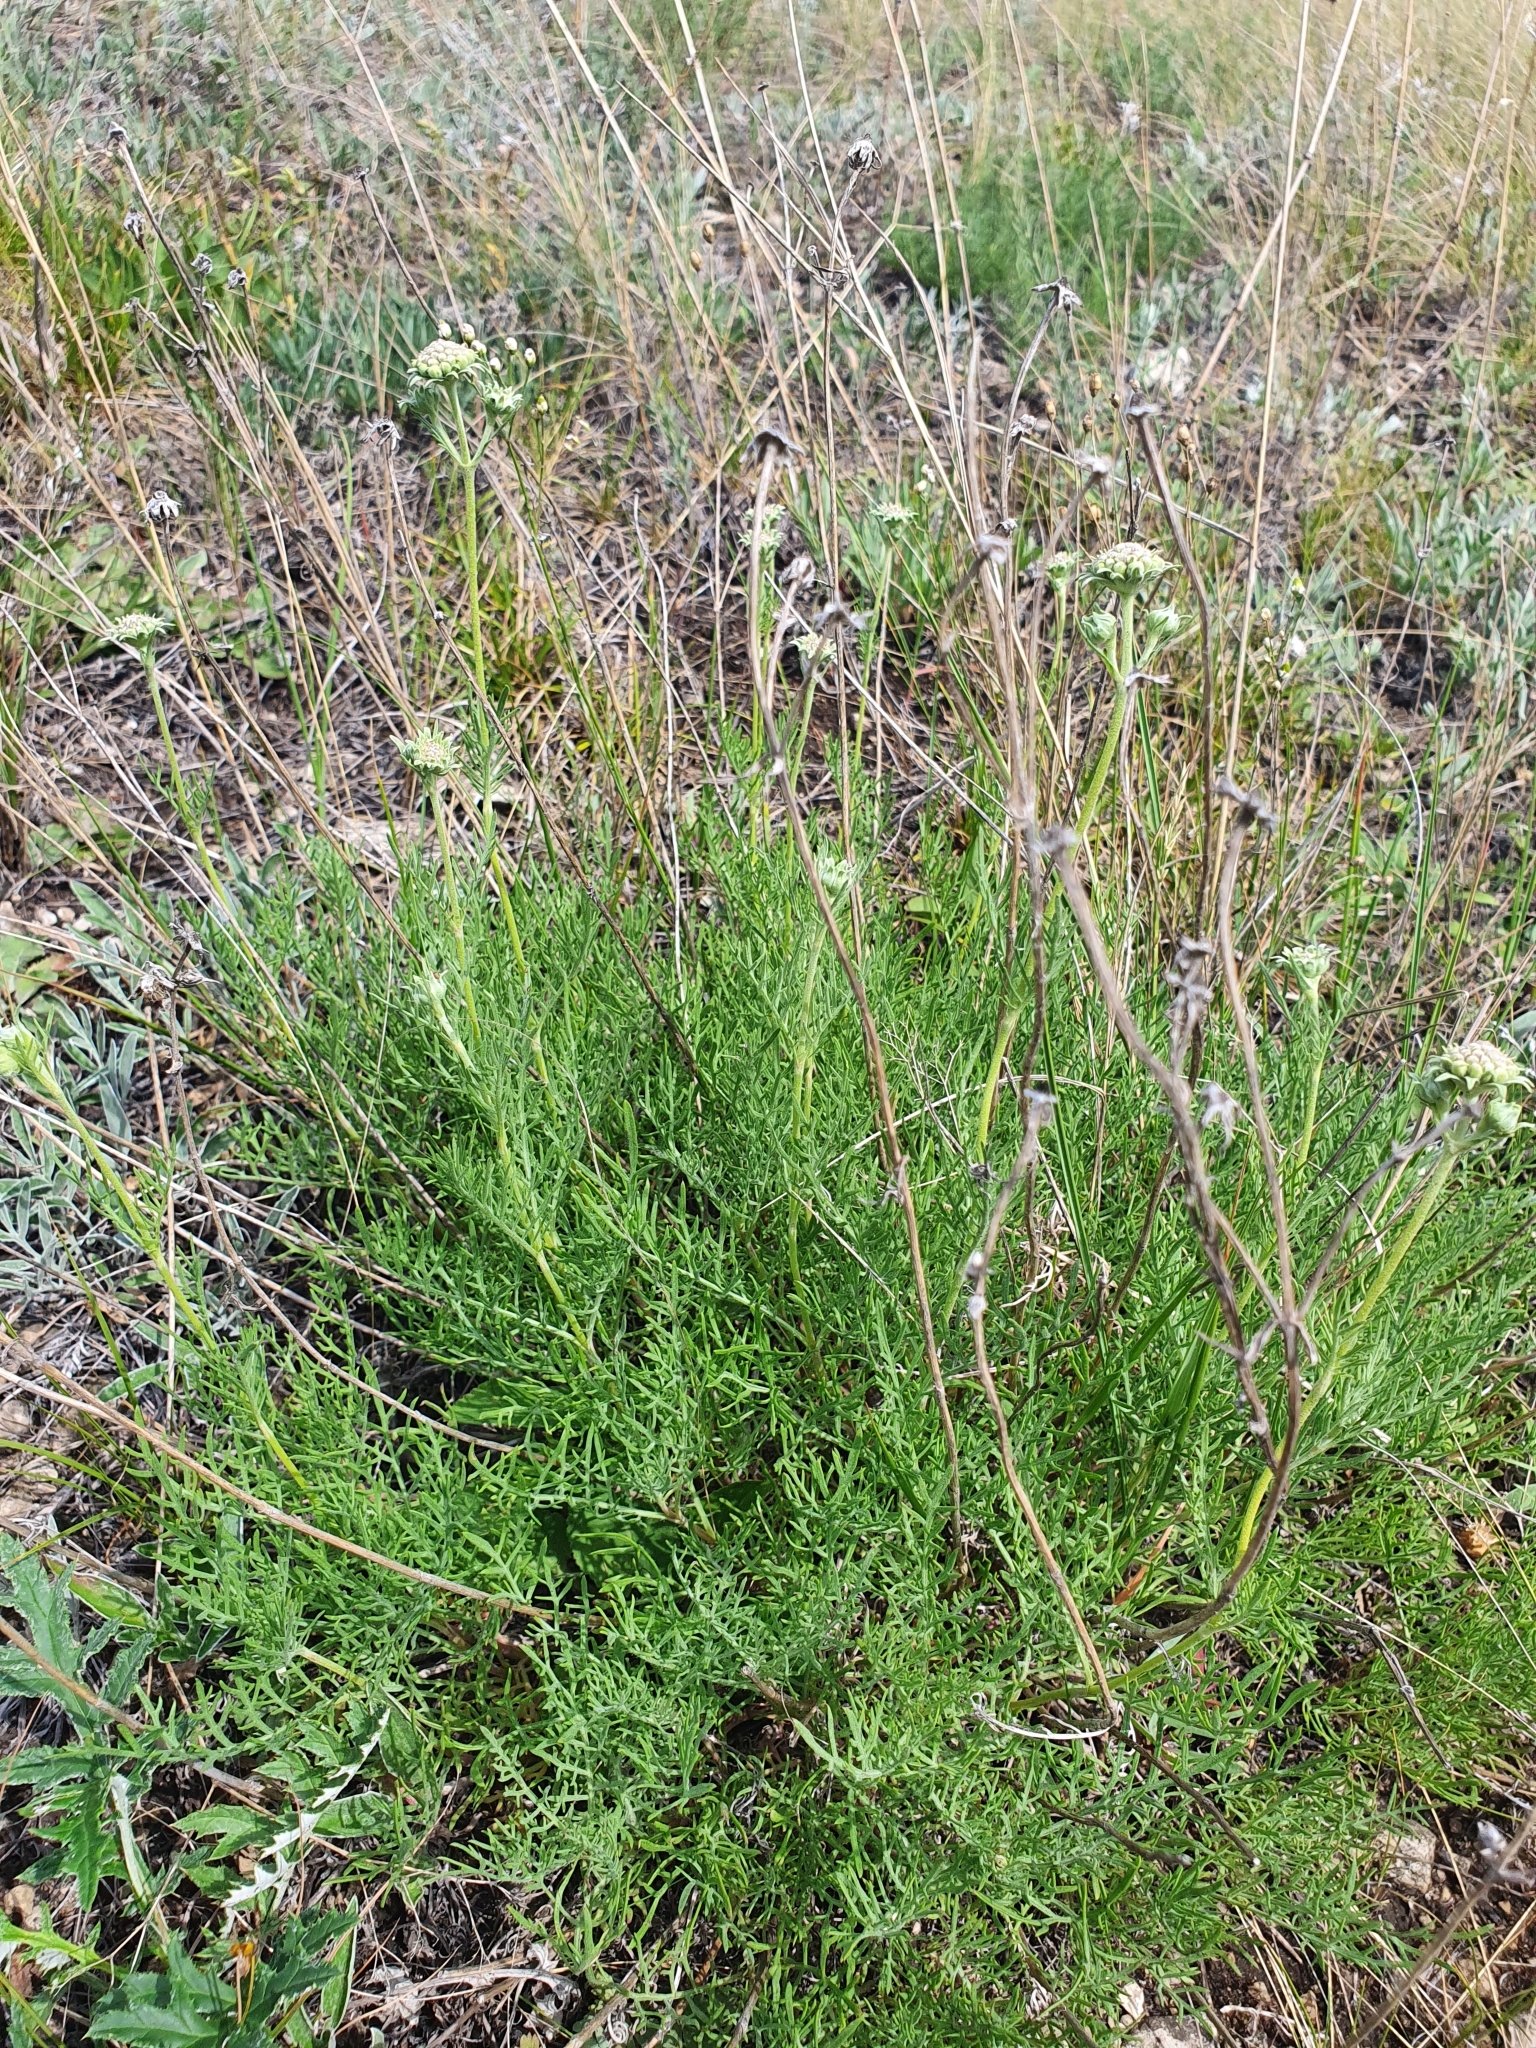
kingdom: Plantae
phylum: Tracheophyta
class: Magnoliopsida
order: Dipsacales
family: Caprifoliaceae
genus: Lomelosia
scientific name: Lomelosia isetensis
